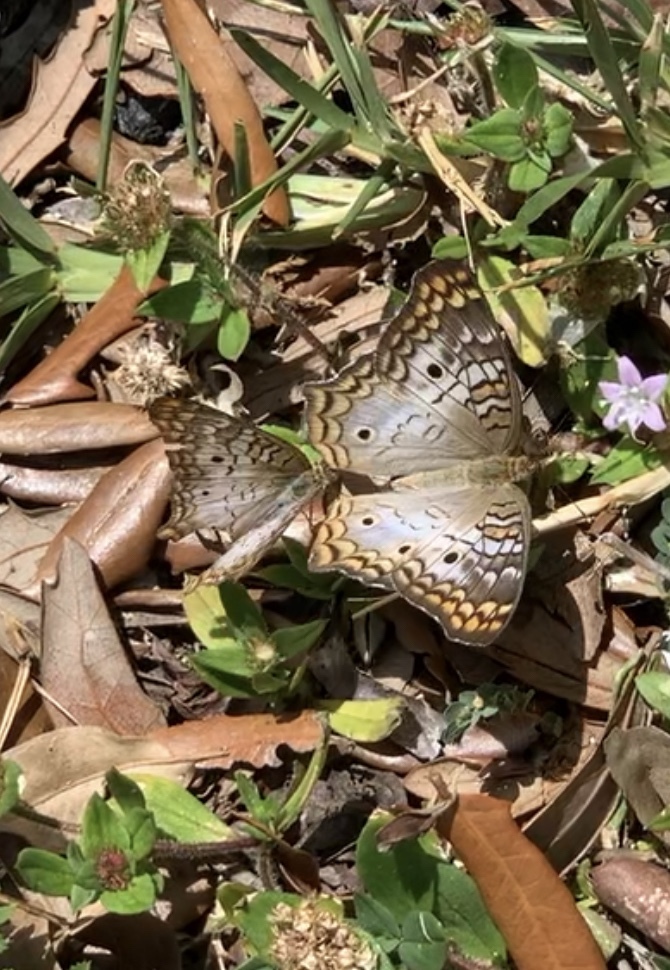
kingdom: Animalia
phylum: Arthropoda
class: Insecta
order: Lepidoptera
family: Nymphalidae
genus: Anartia
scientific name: Anartia jatrophae
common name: White peacock
